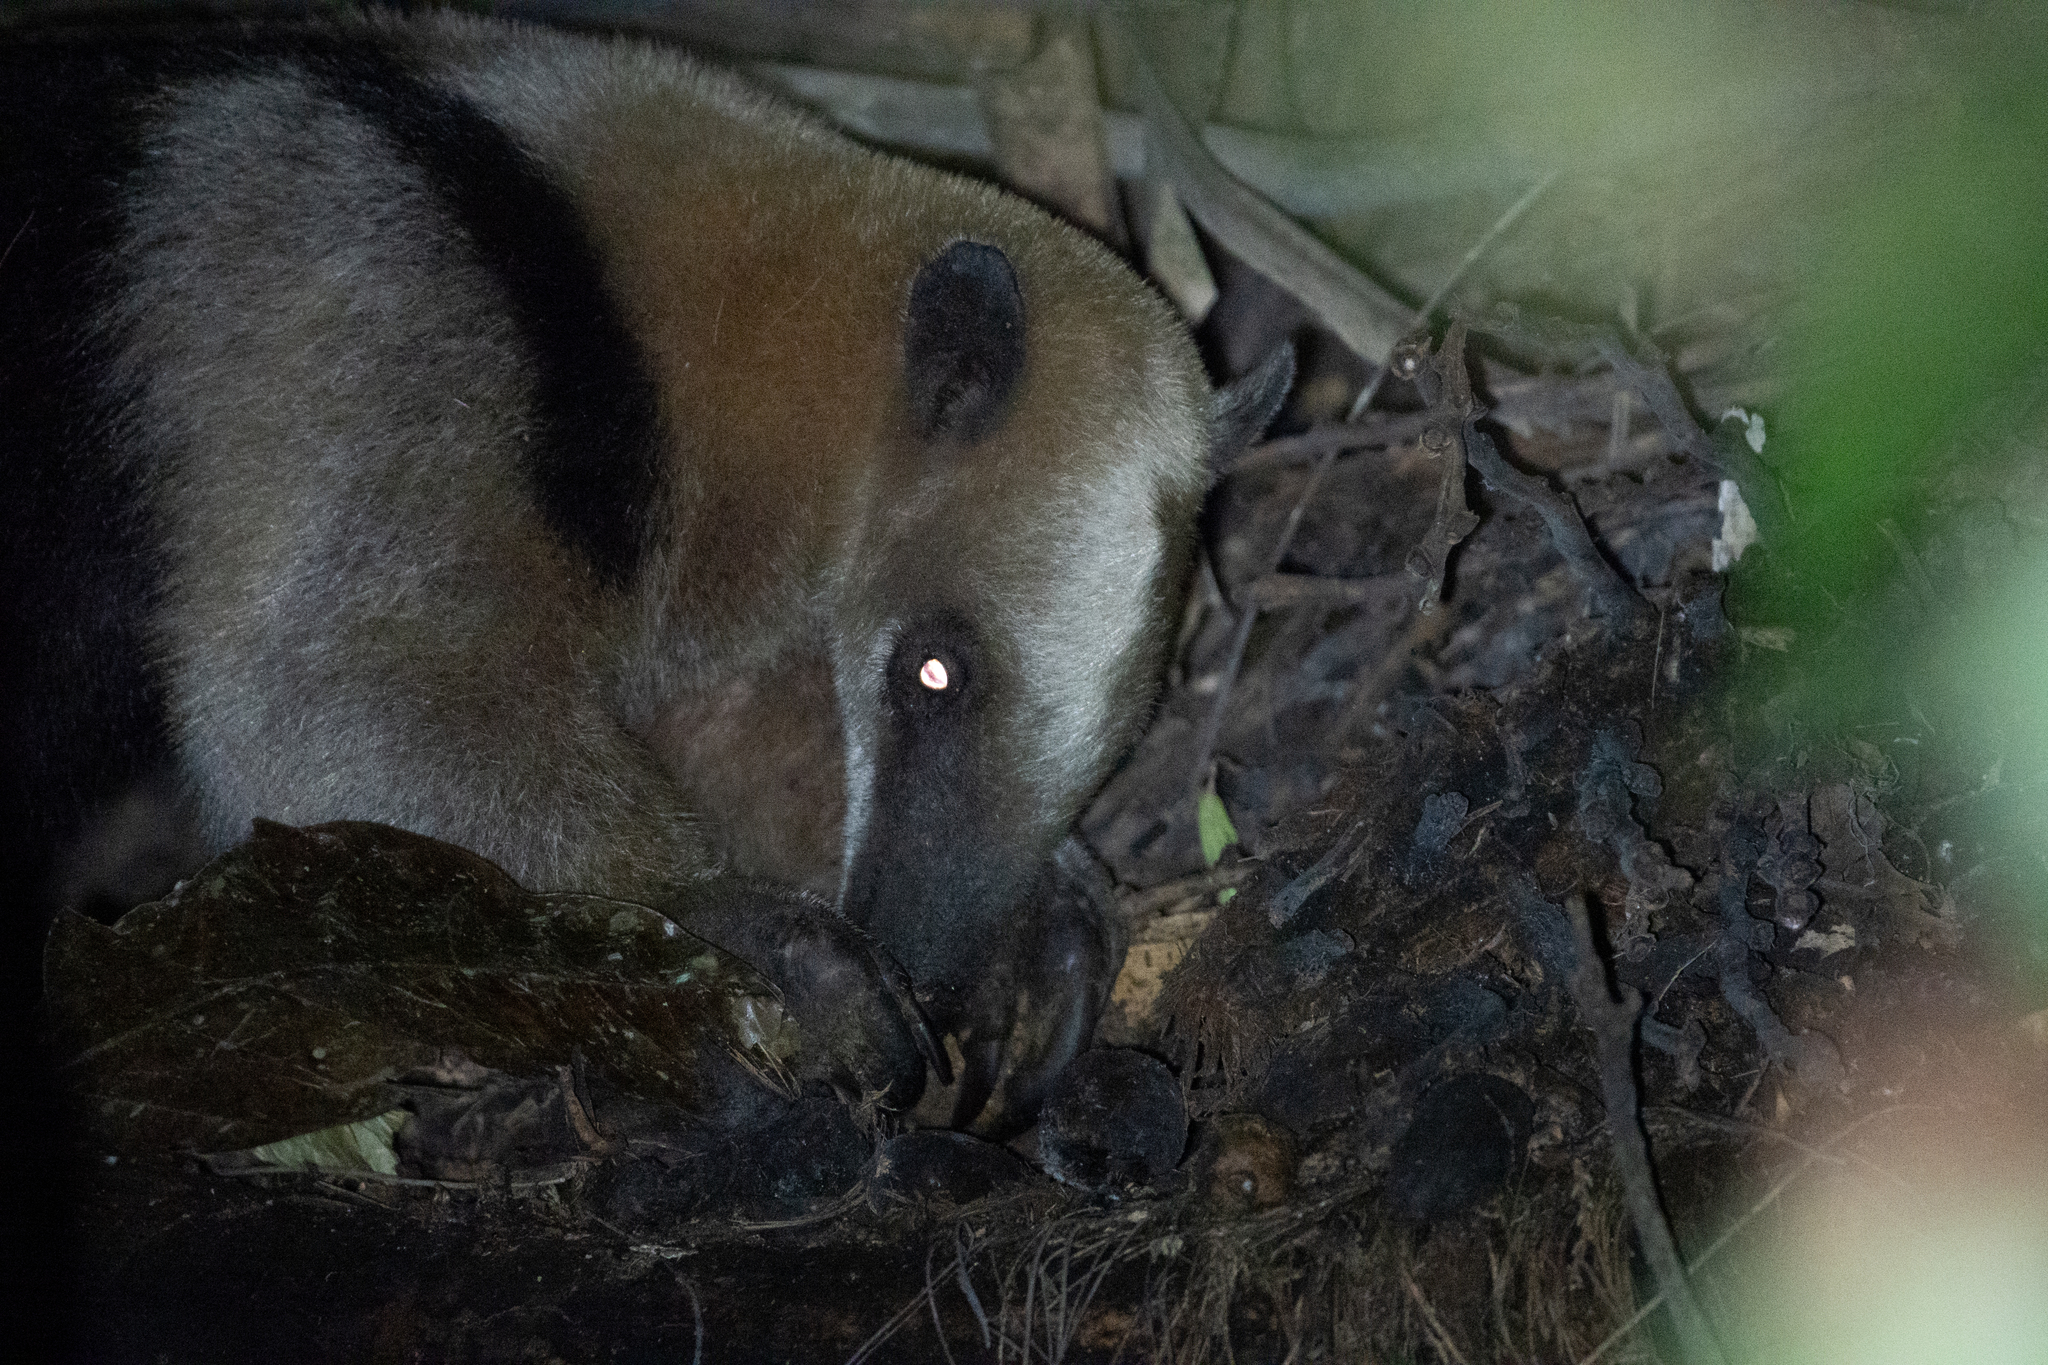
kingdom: Animalia
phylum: Chordata
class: Mammalia
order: Pilosa
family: Myrmecophagidae
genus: Tamandua
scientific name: Tamandua mexicana
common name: Northern tamandua
